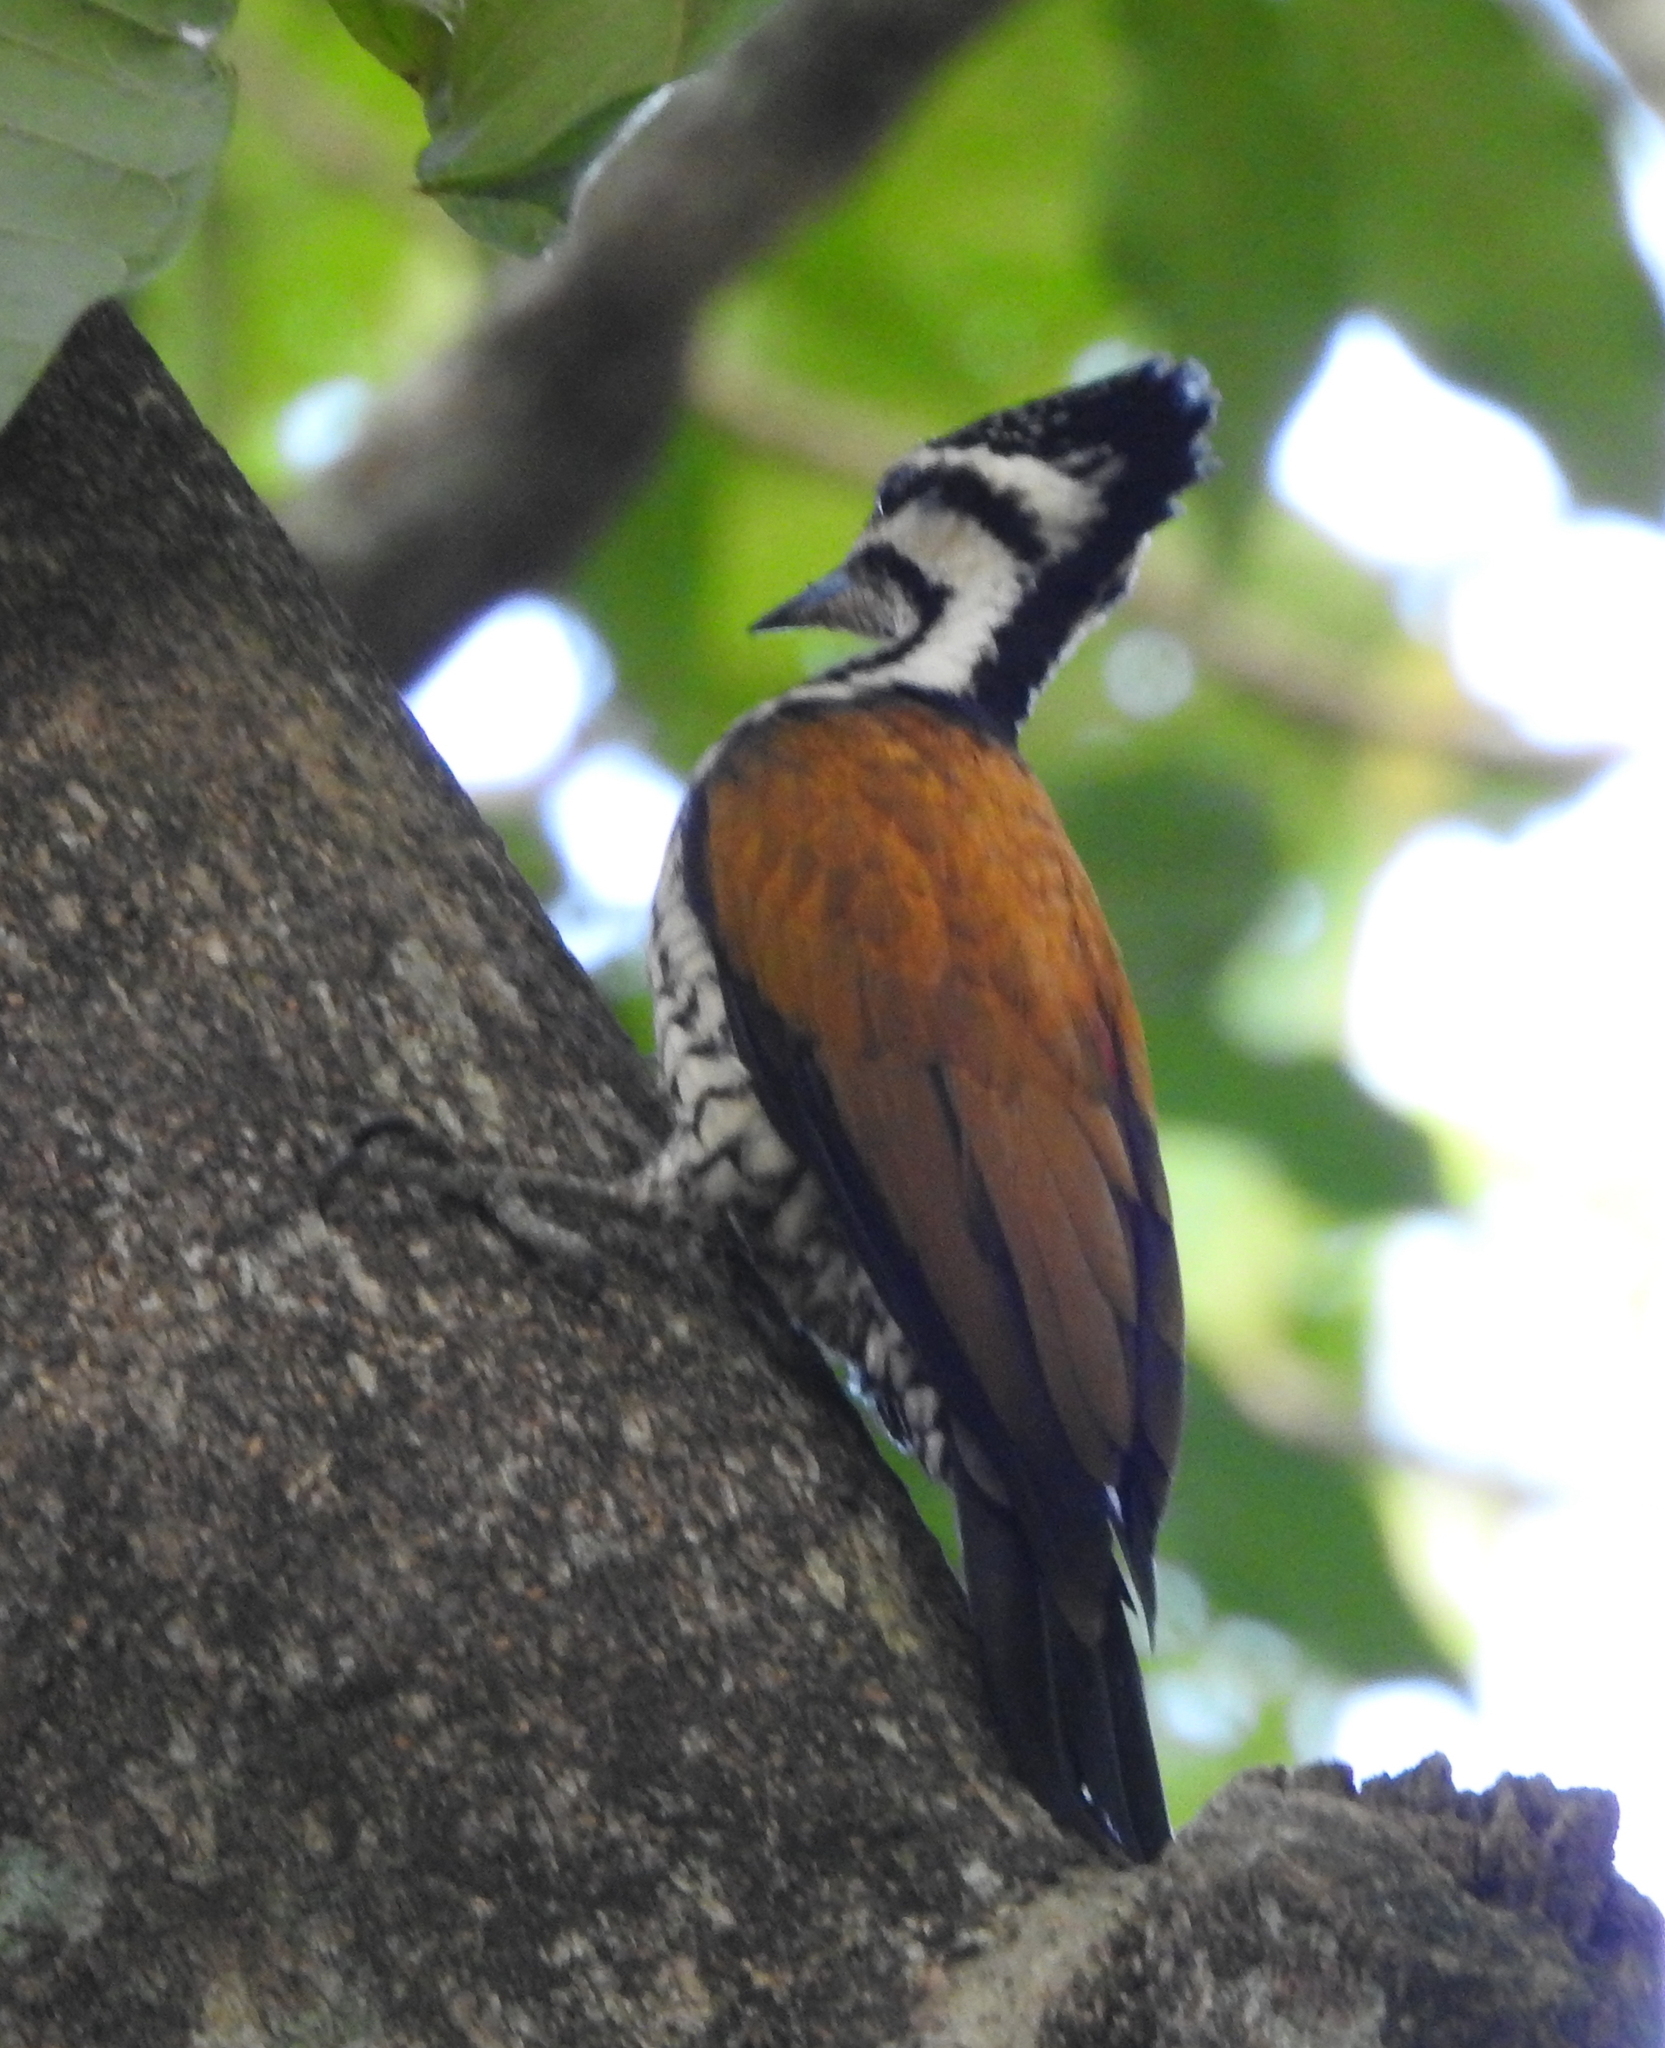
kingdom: Animalia
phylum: Chordata
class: Aves
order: Piciformes
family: Picidae
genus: Dinopium
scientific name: Dinopium javanense
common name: Common flameback
